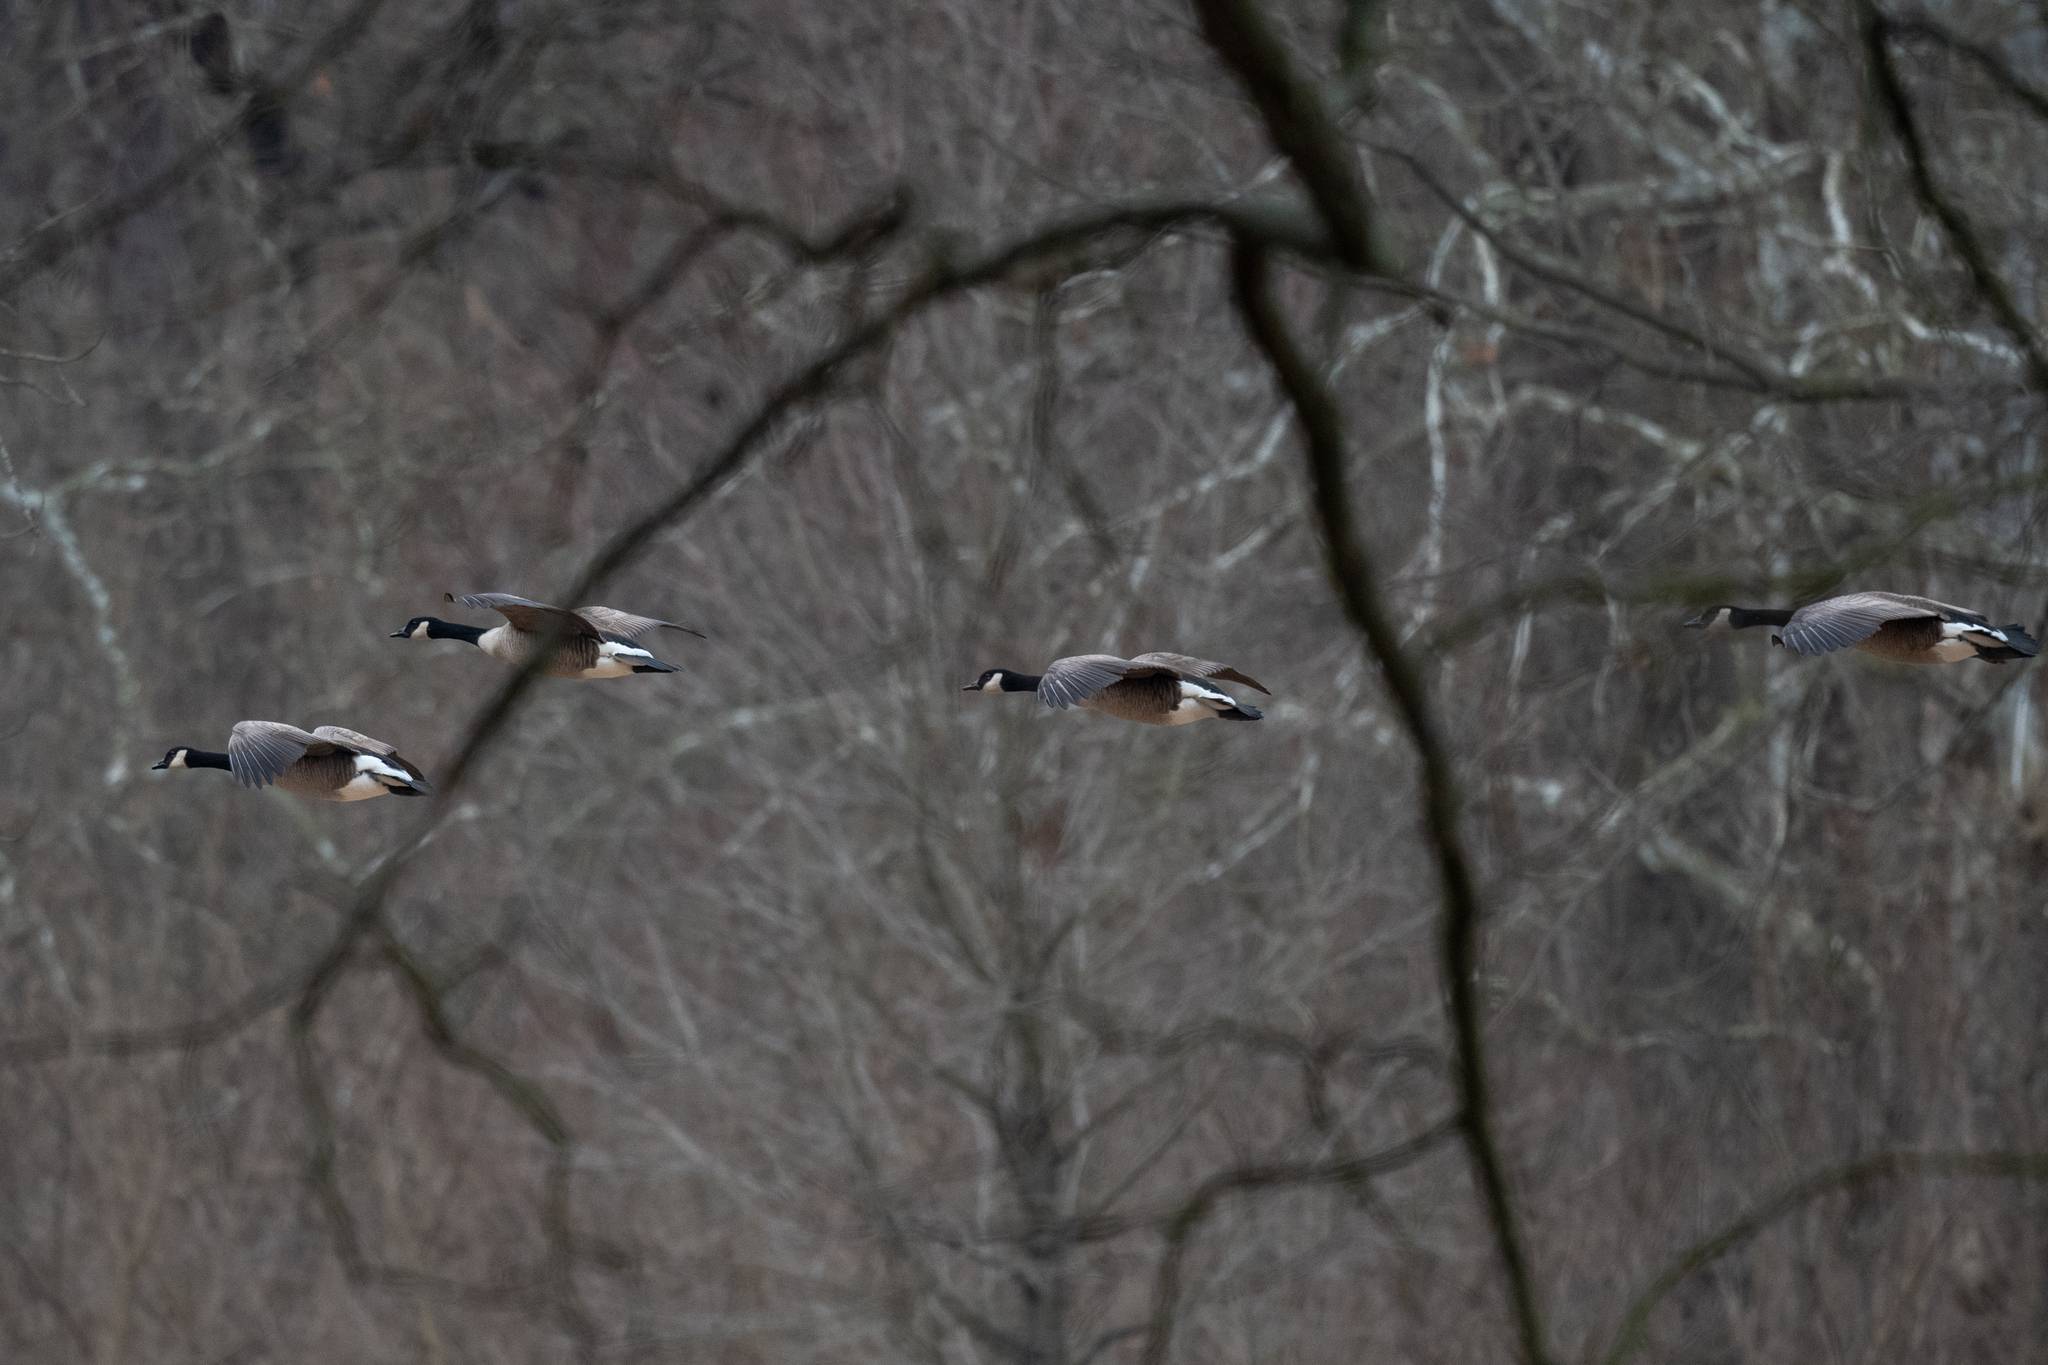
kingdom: Animalia
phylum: Chordata
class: Aves
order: Anseriformes
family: Anatidae
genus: Branta
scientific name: Branta canadensis
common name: Canada goose
